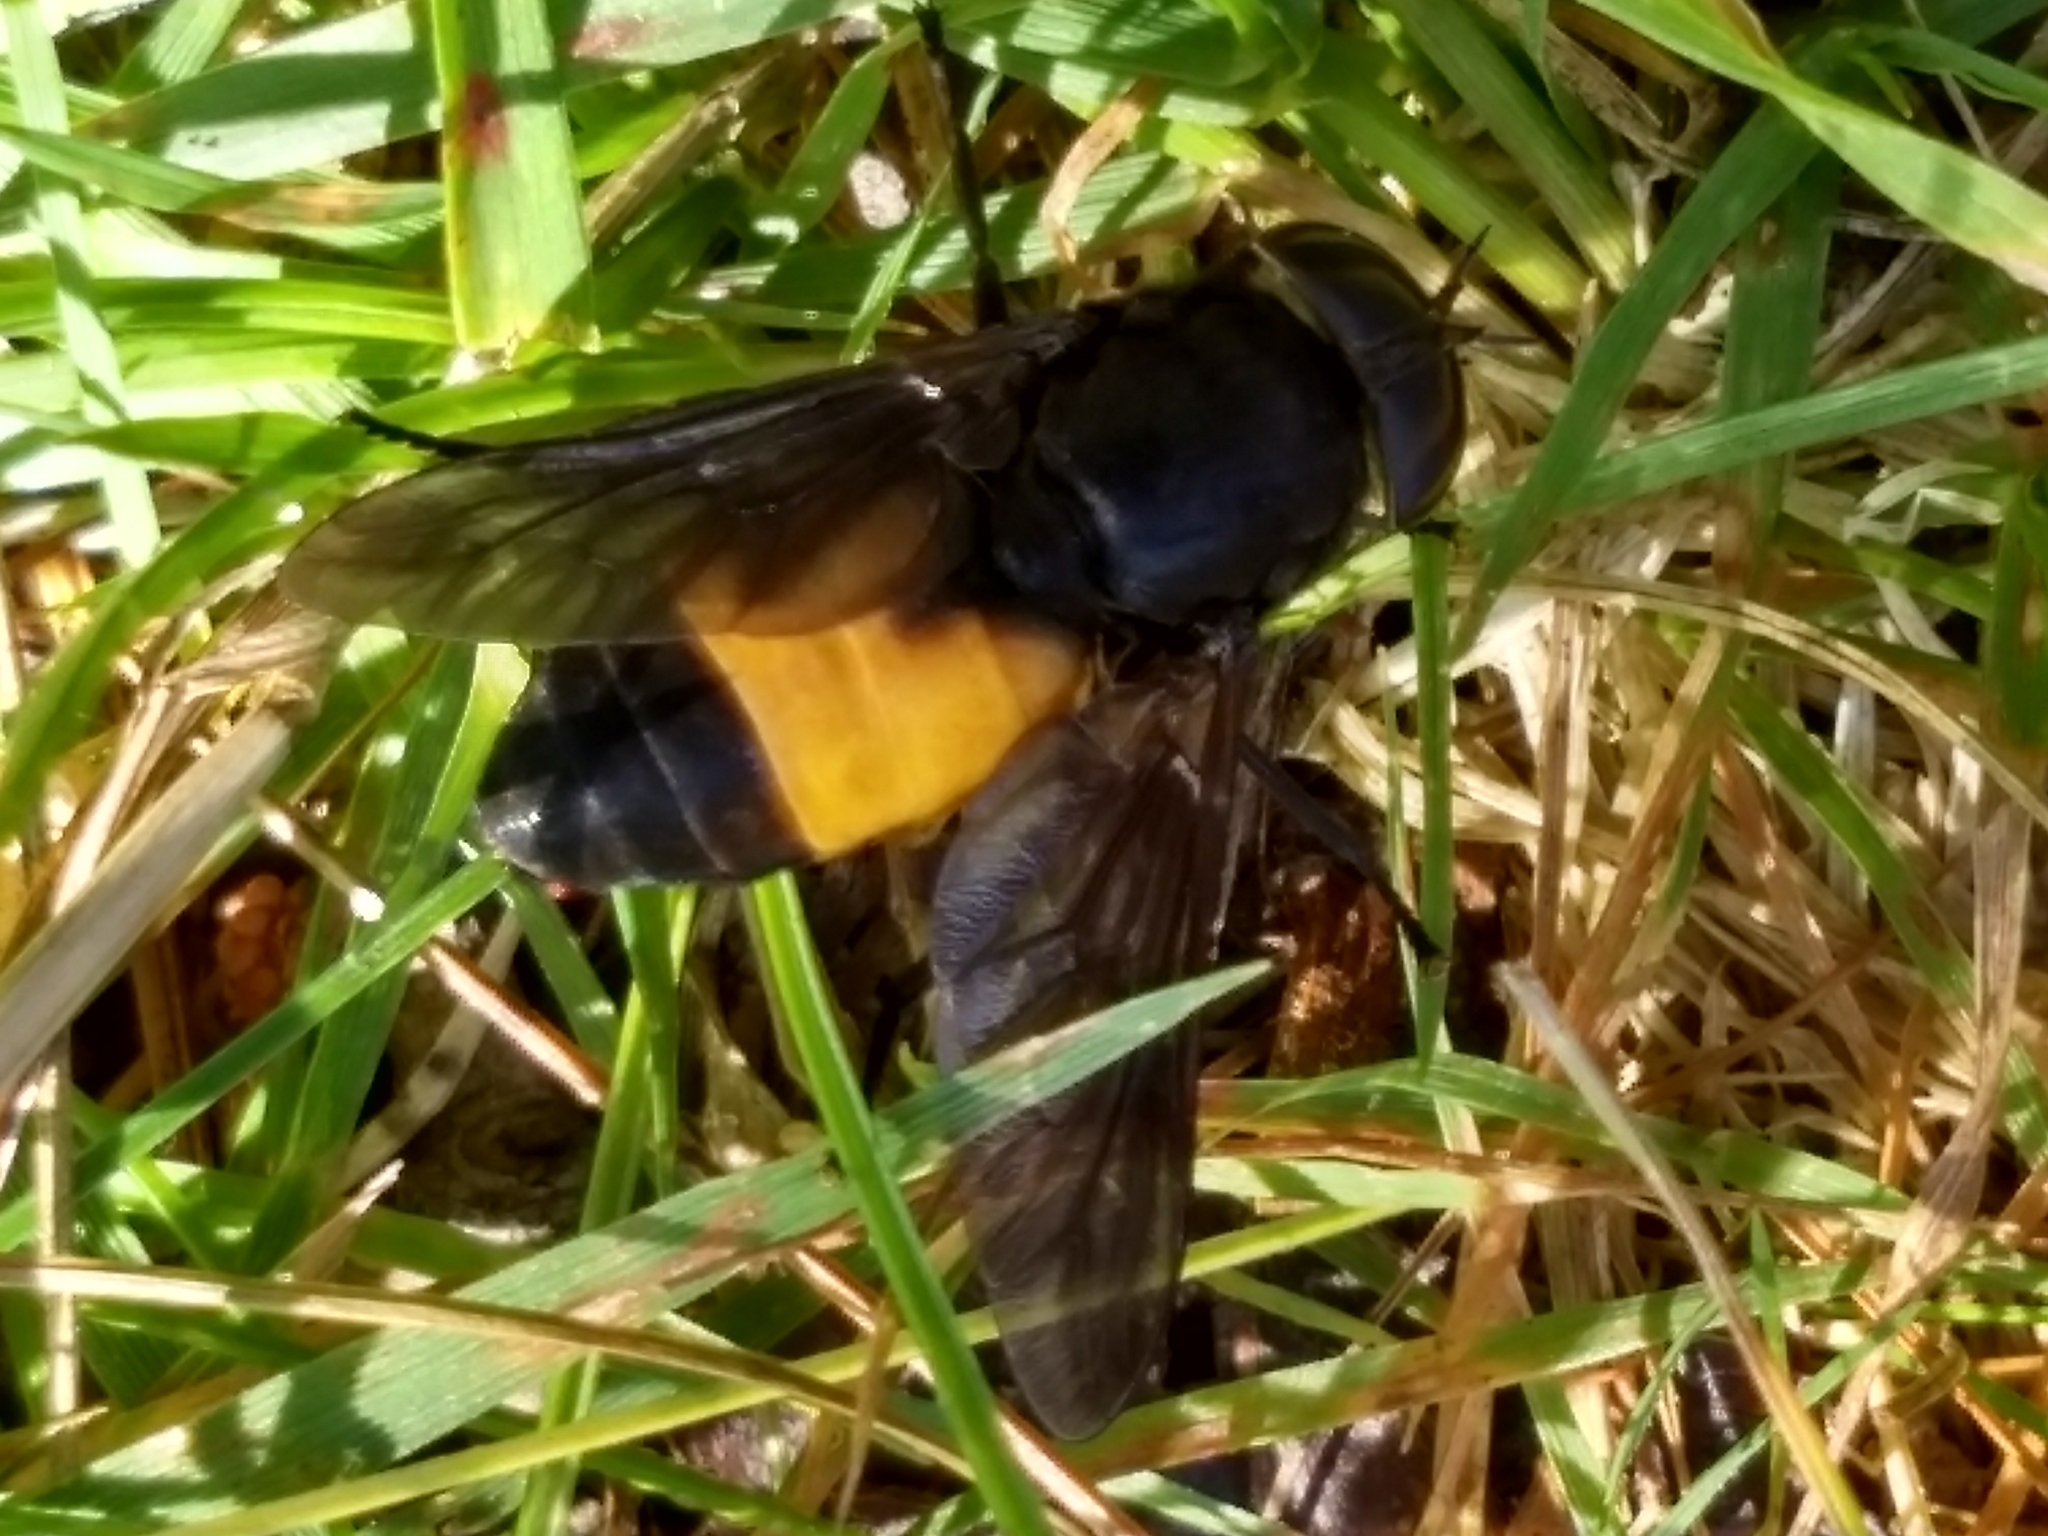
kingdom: Animalia
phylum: Arthropoda
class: Insecta
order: Diptera
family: Tabanidae
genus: Hybomitra
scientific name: Hybomitra cincta
